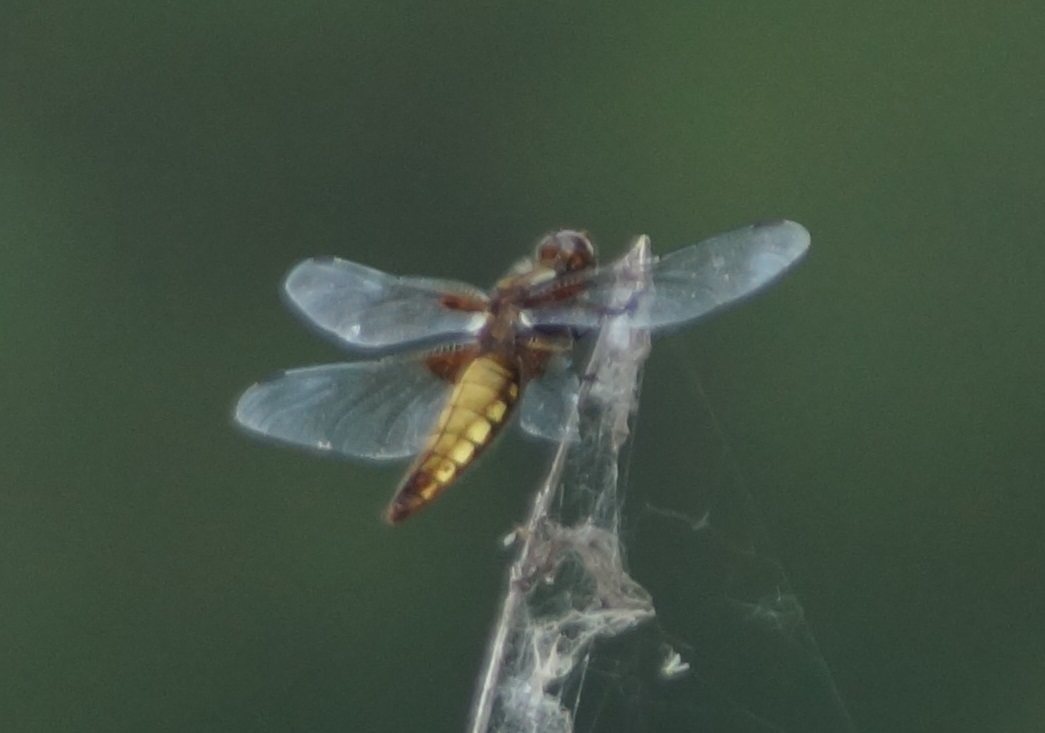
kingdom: Animalia
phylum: Arthropoda
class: Insecta
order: Odonata
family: Libellulidae
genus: Libellula
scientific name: Libellula depressa
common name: Broad-bodied chaser
